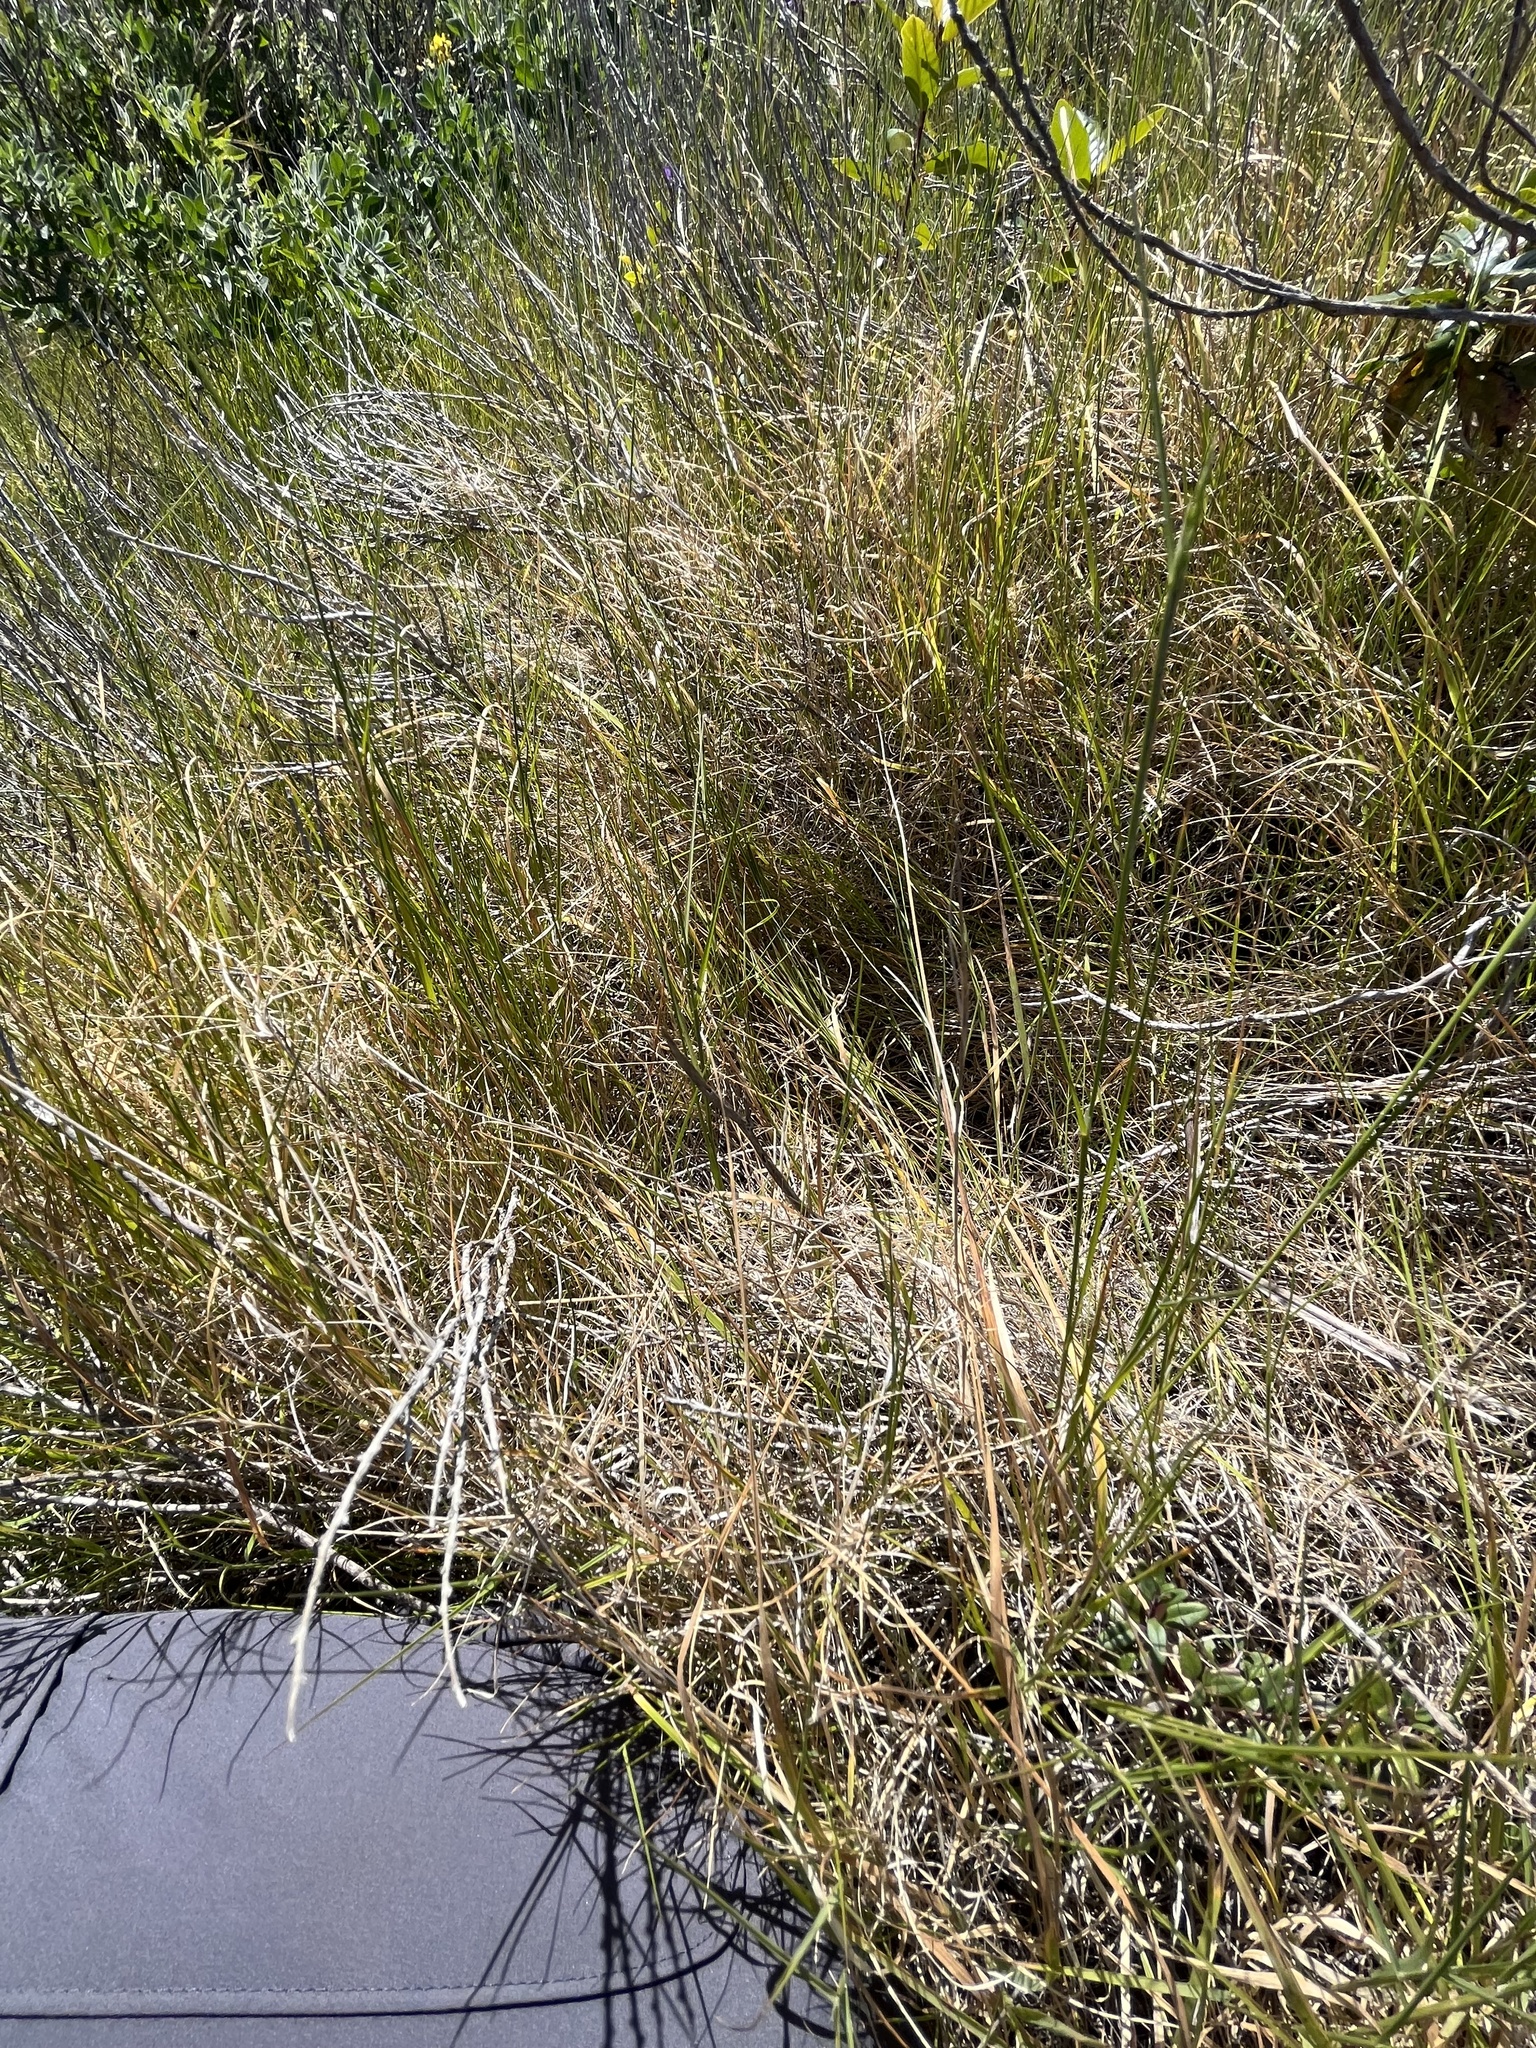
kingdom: Plantae
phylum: Tracheophyta
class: Liliopsida
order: Poales
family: Poaceae
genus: Muhlenbergia
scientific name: Muhlenbergia utilis
